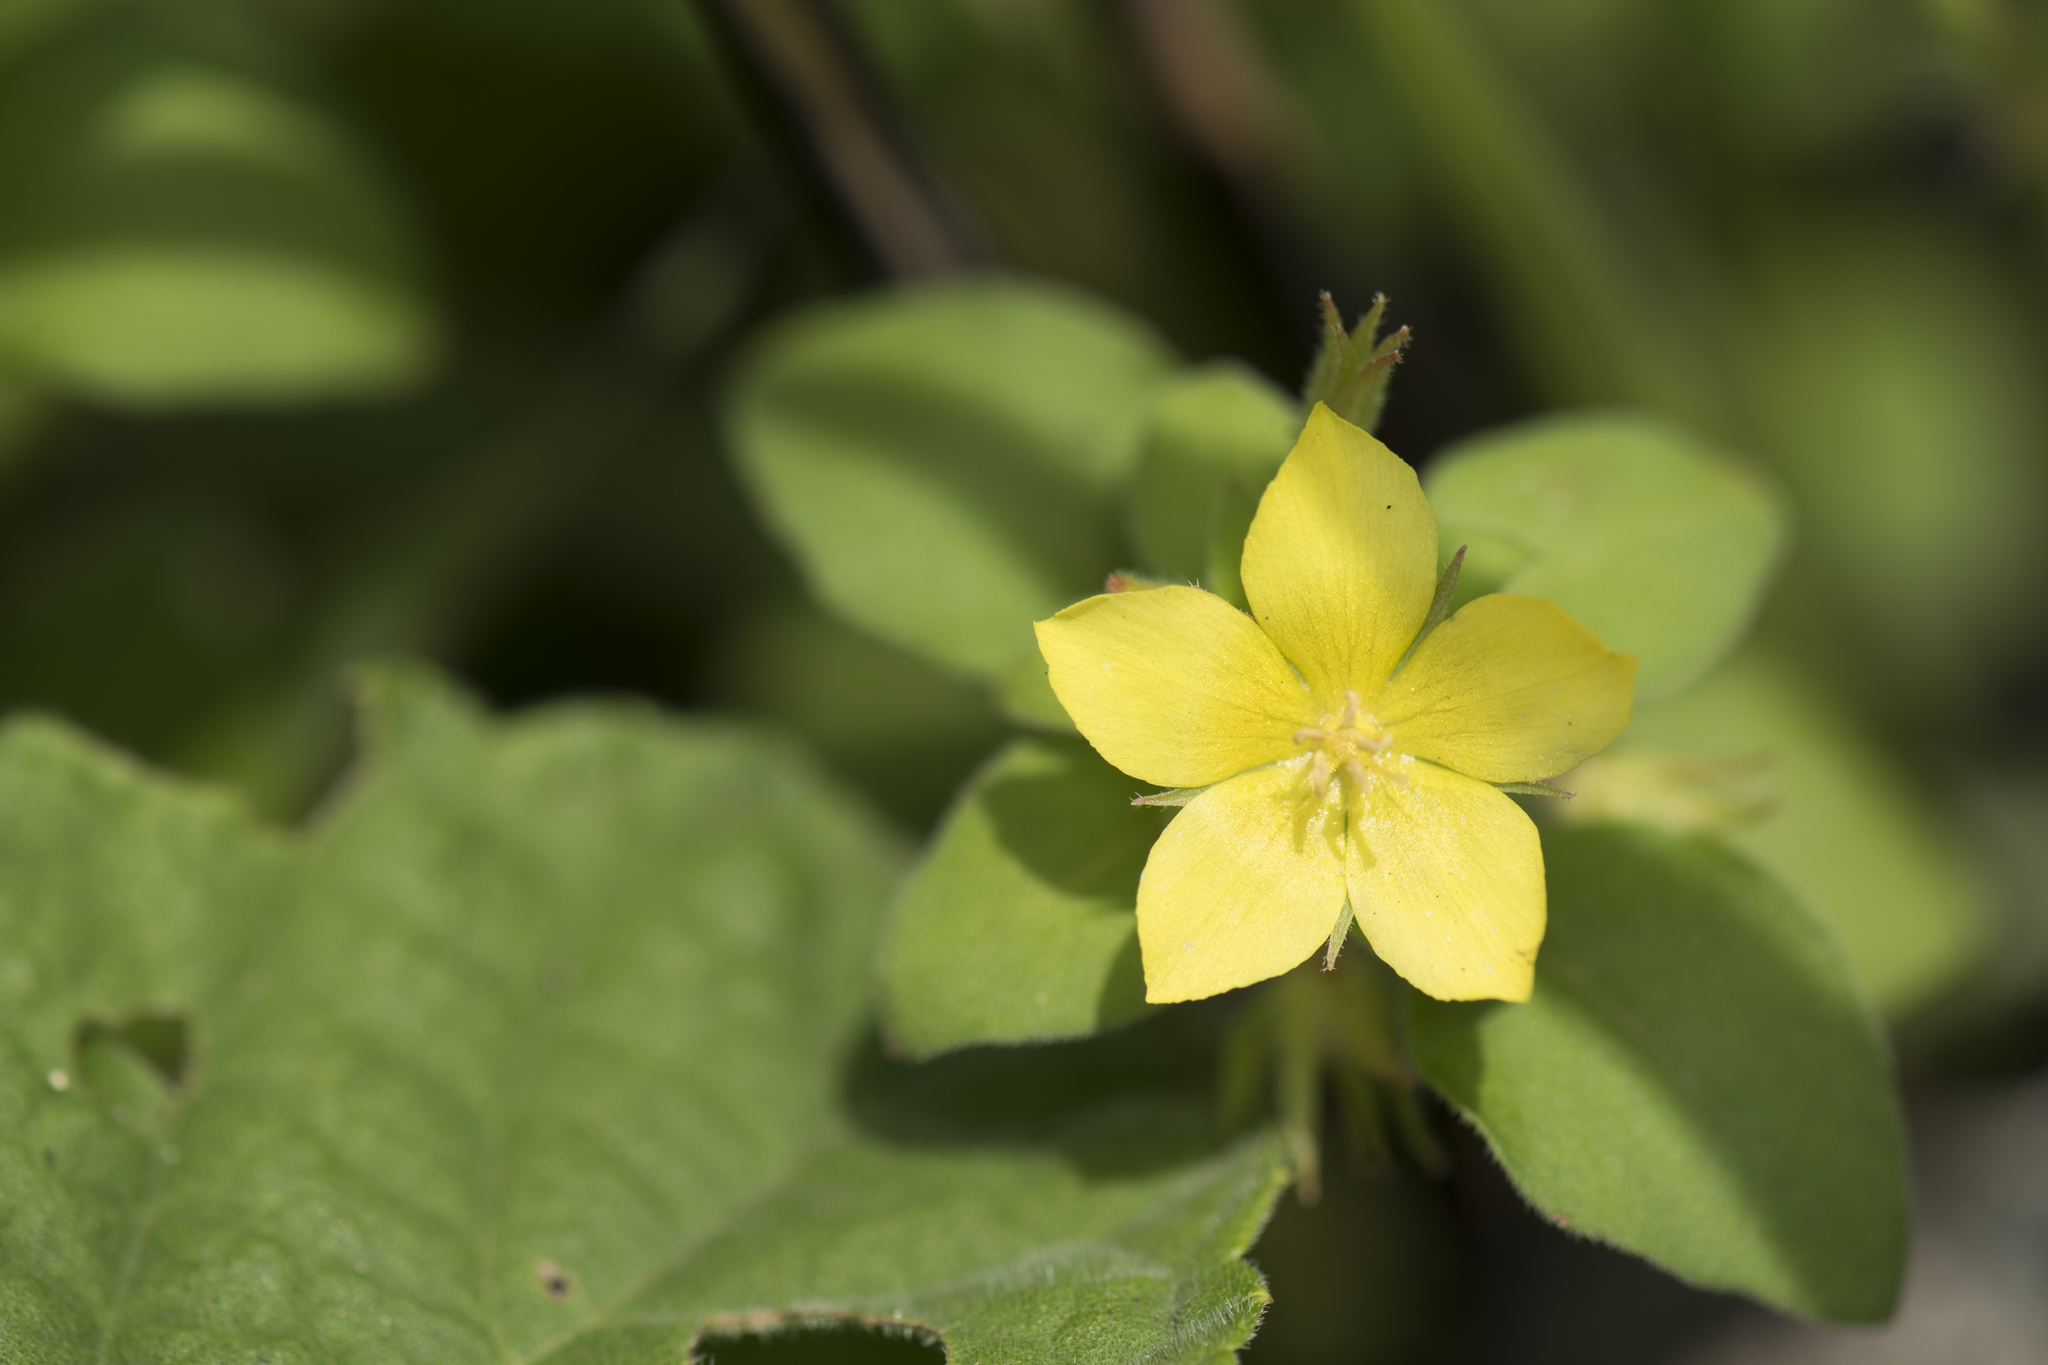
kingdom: Plantae
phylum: Tracheophyta
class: Magnoliopsida
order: Ericales
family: Primulaceae
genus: Lysimachia
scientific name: Lysimachia remota
